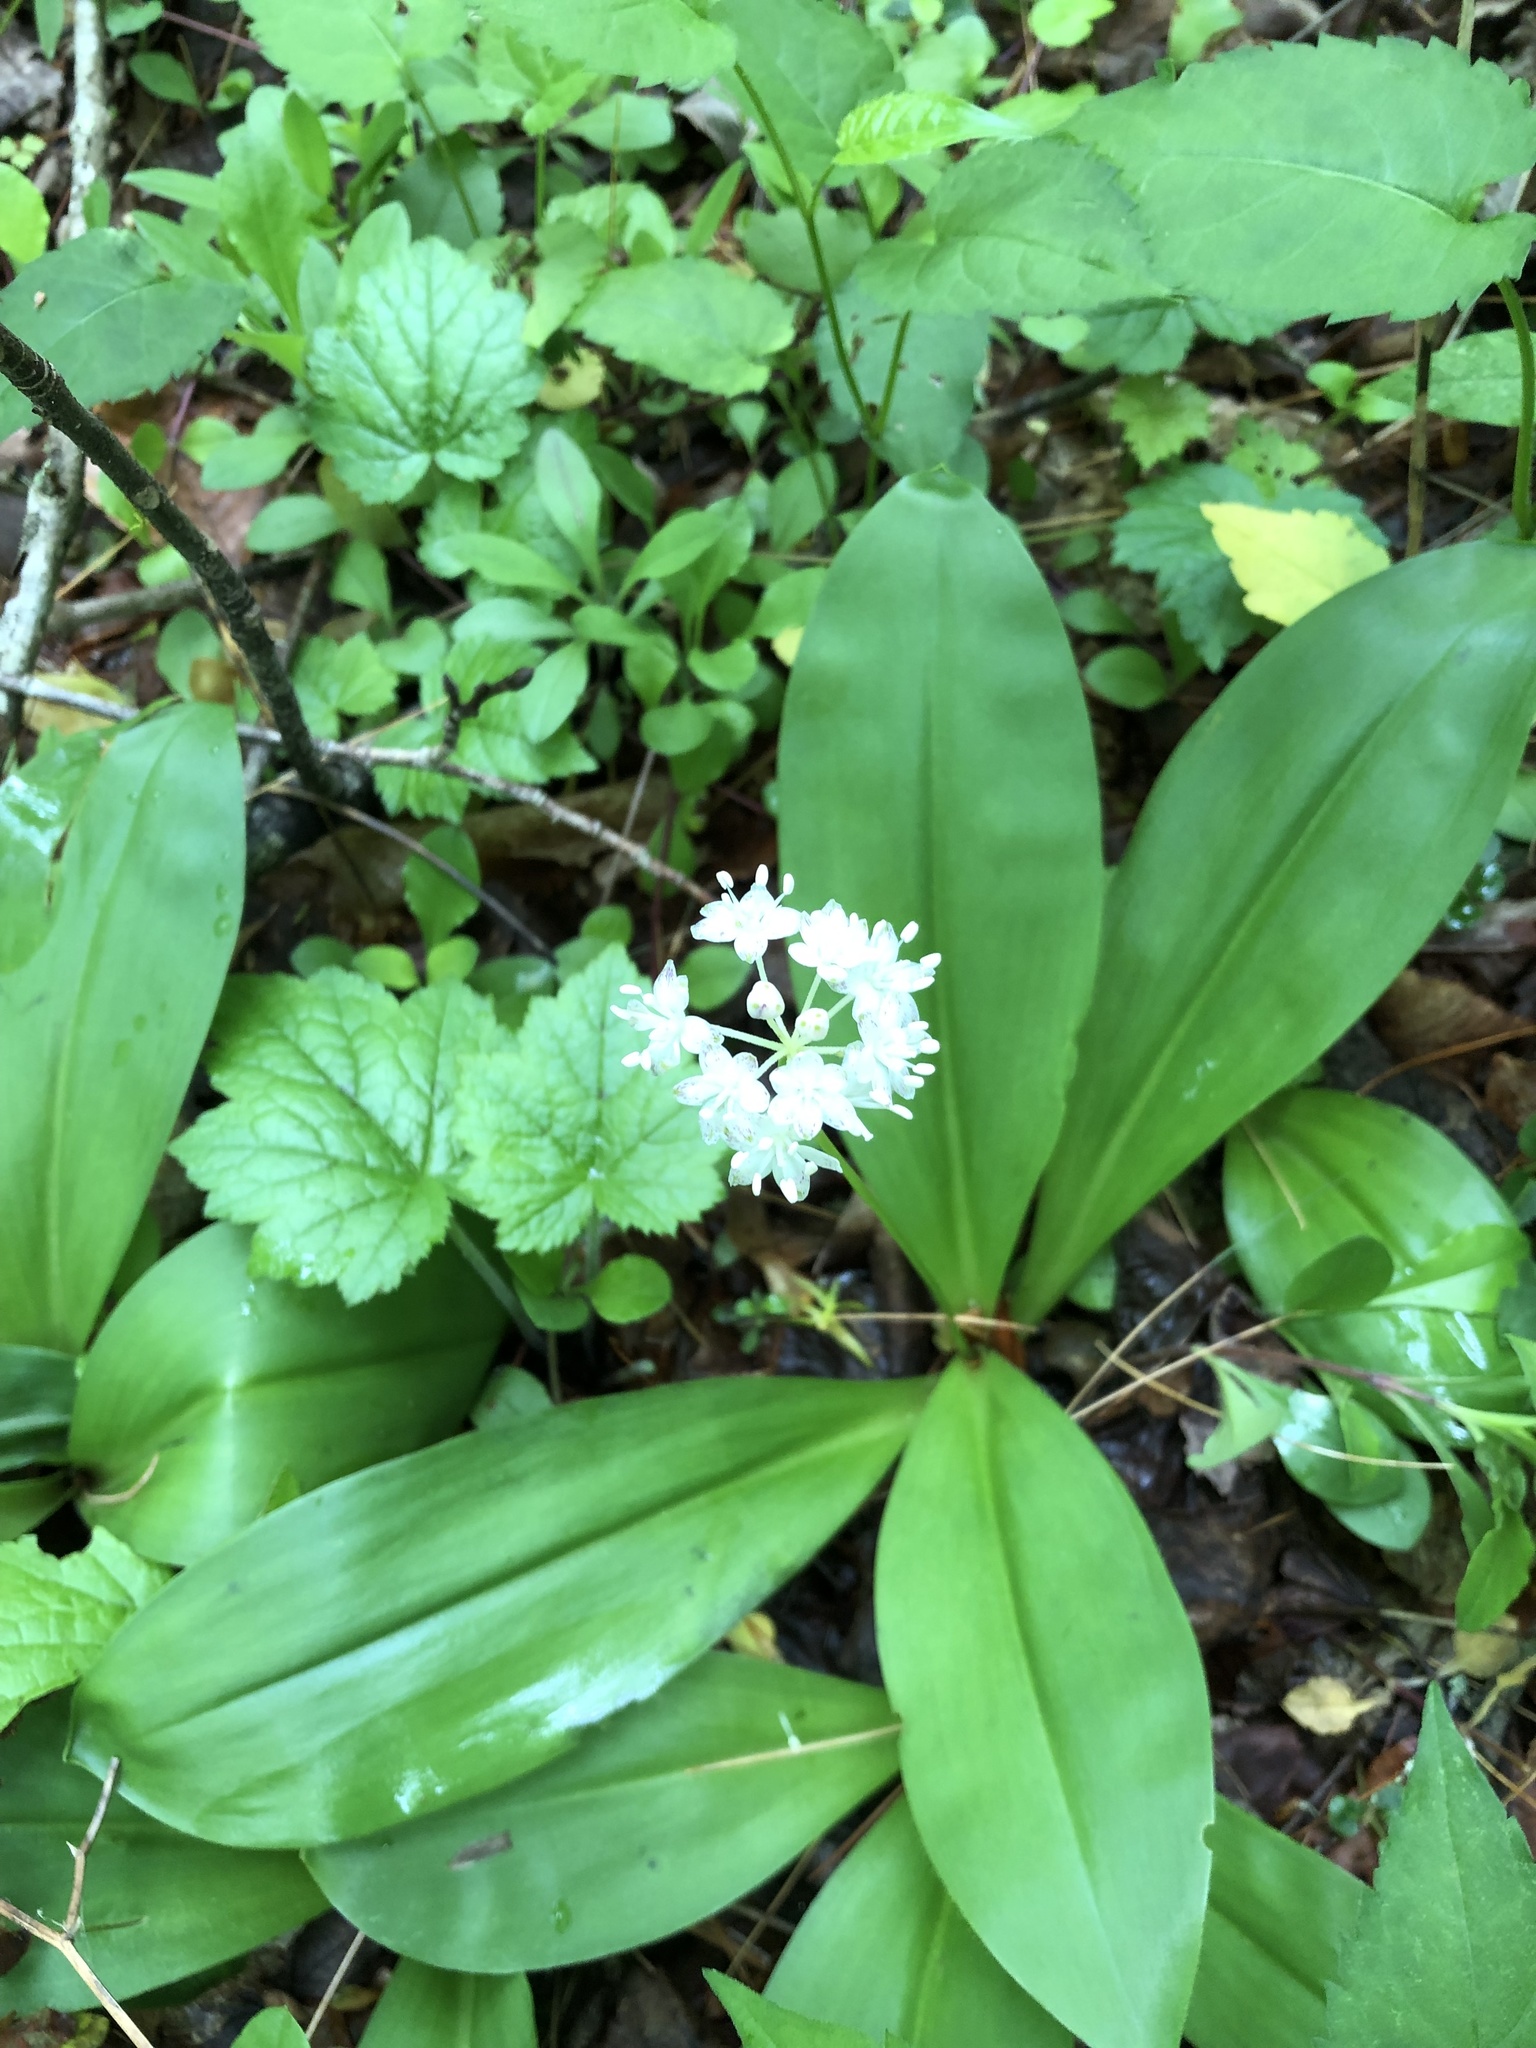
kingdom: Plantae
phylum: Tracheophyta
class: Liliopsida
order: Liliales
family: Liliaceae
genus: Clintonia
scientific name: Clintonia umbellulata
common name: Speckle wood-lily
